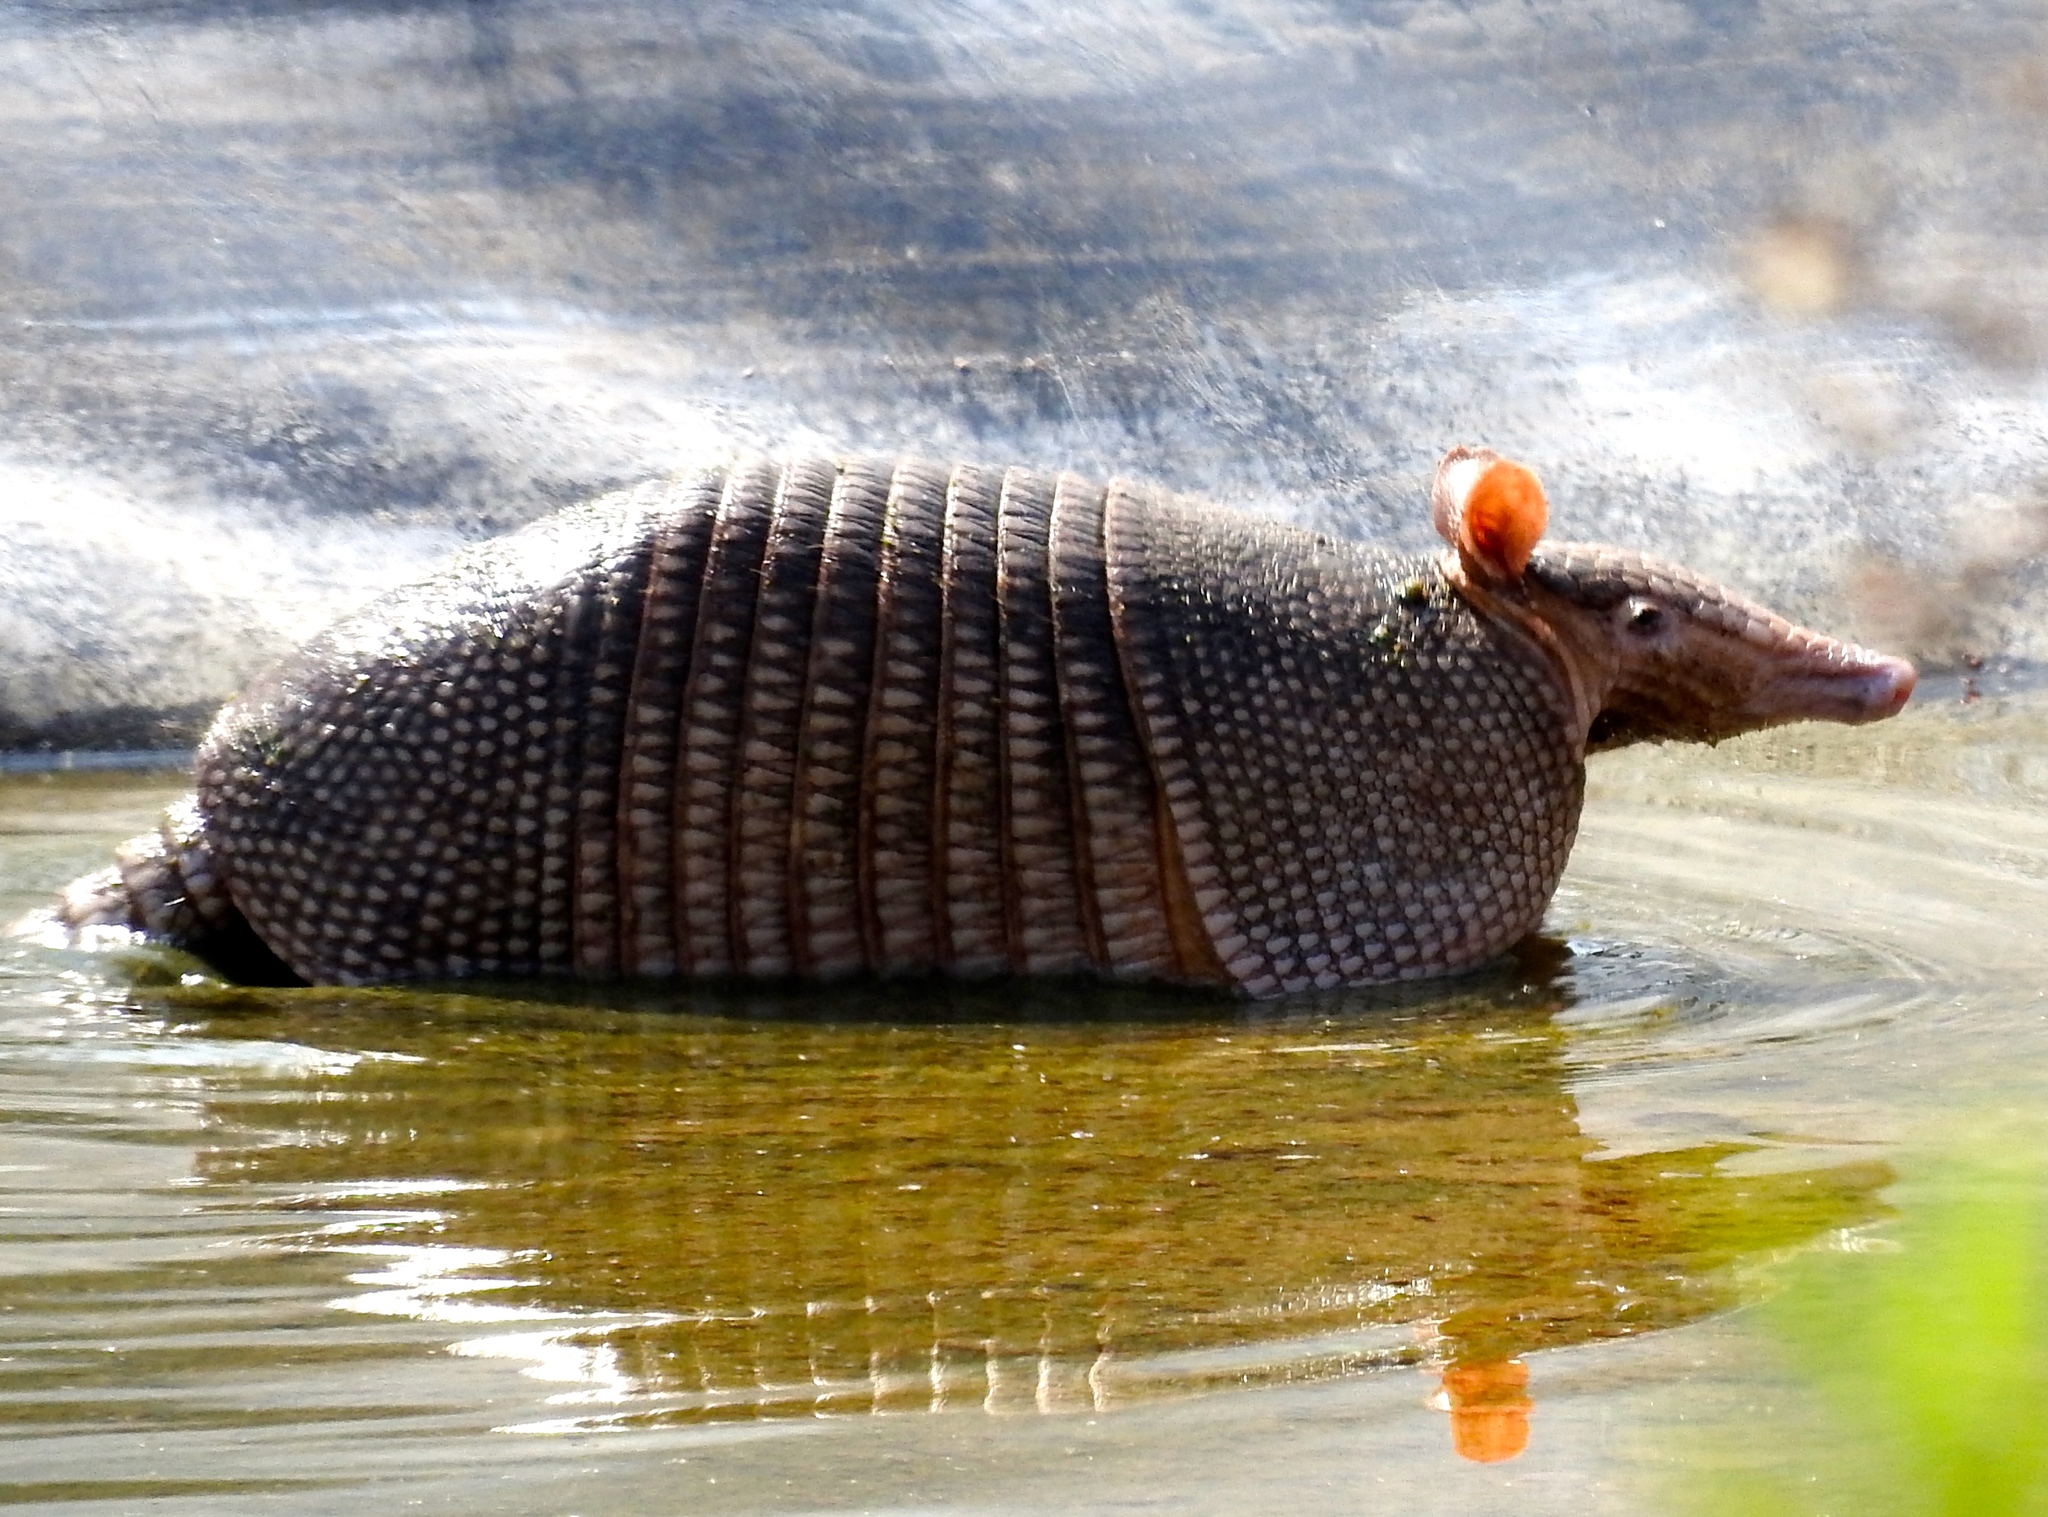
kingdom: Animalia
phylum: Chordata
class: Mammalia
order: Cingulata
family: Dasypodidae
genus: Dasypus
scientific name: Dasypus novemcinctus
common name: Nine-banded armadillo
